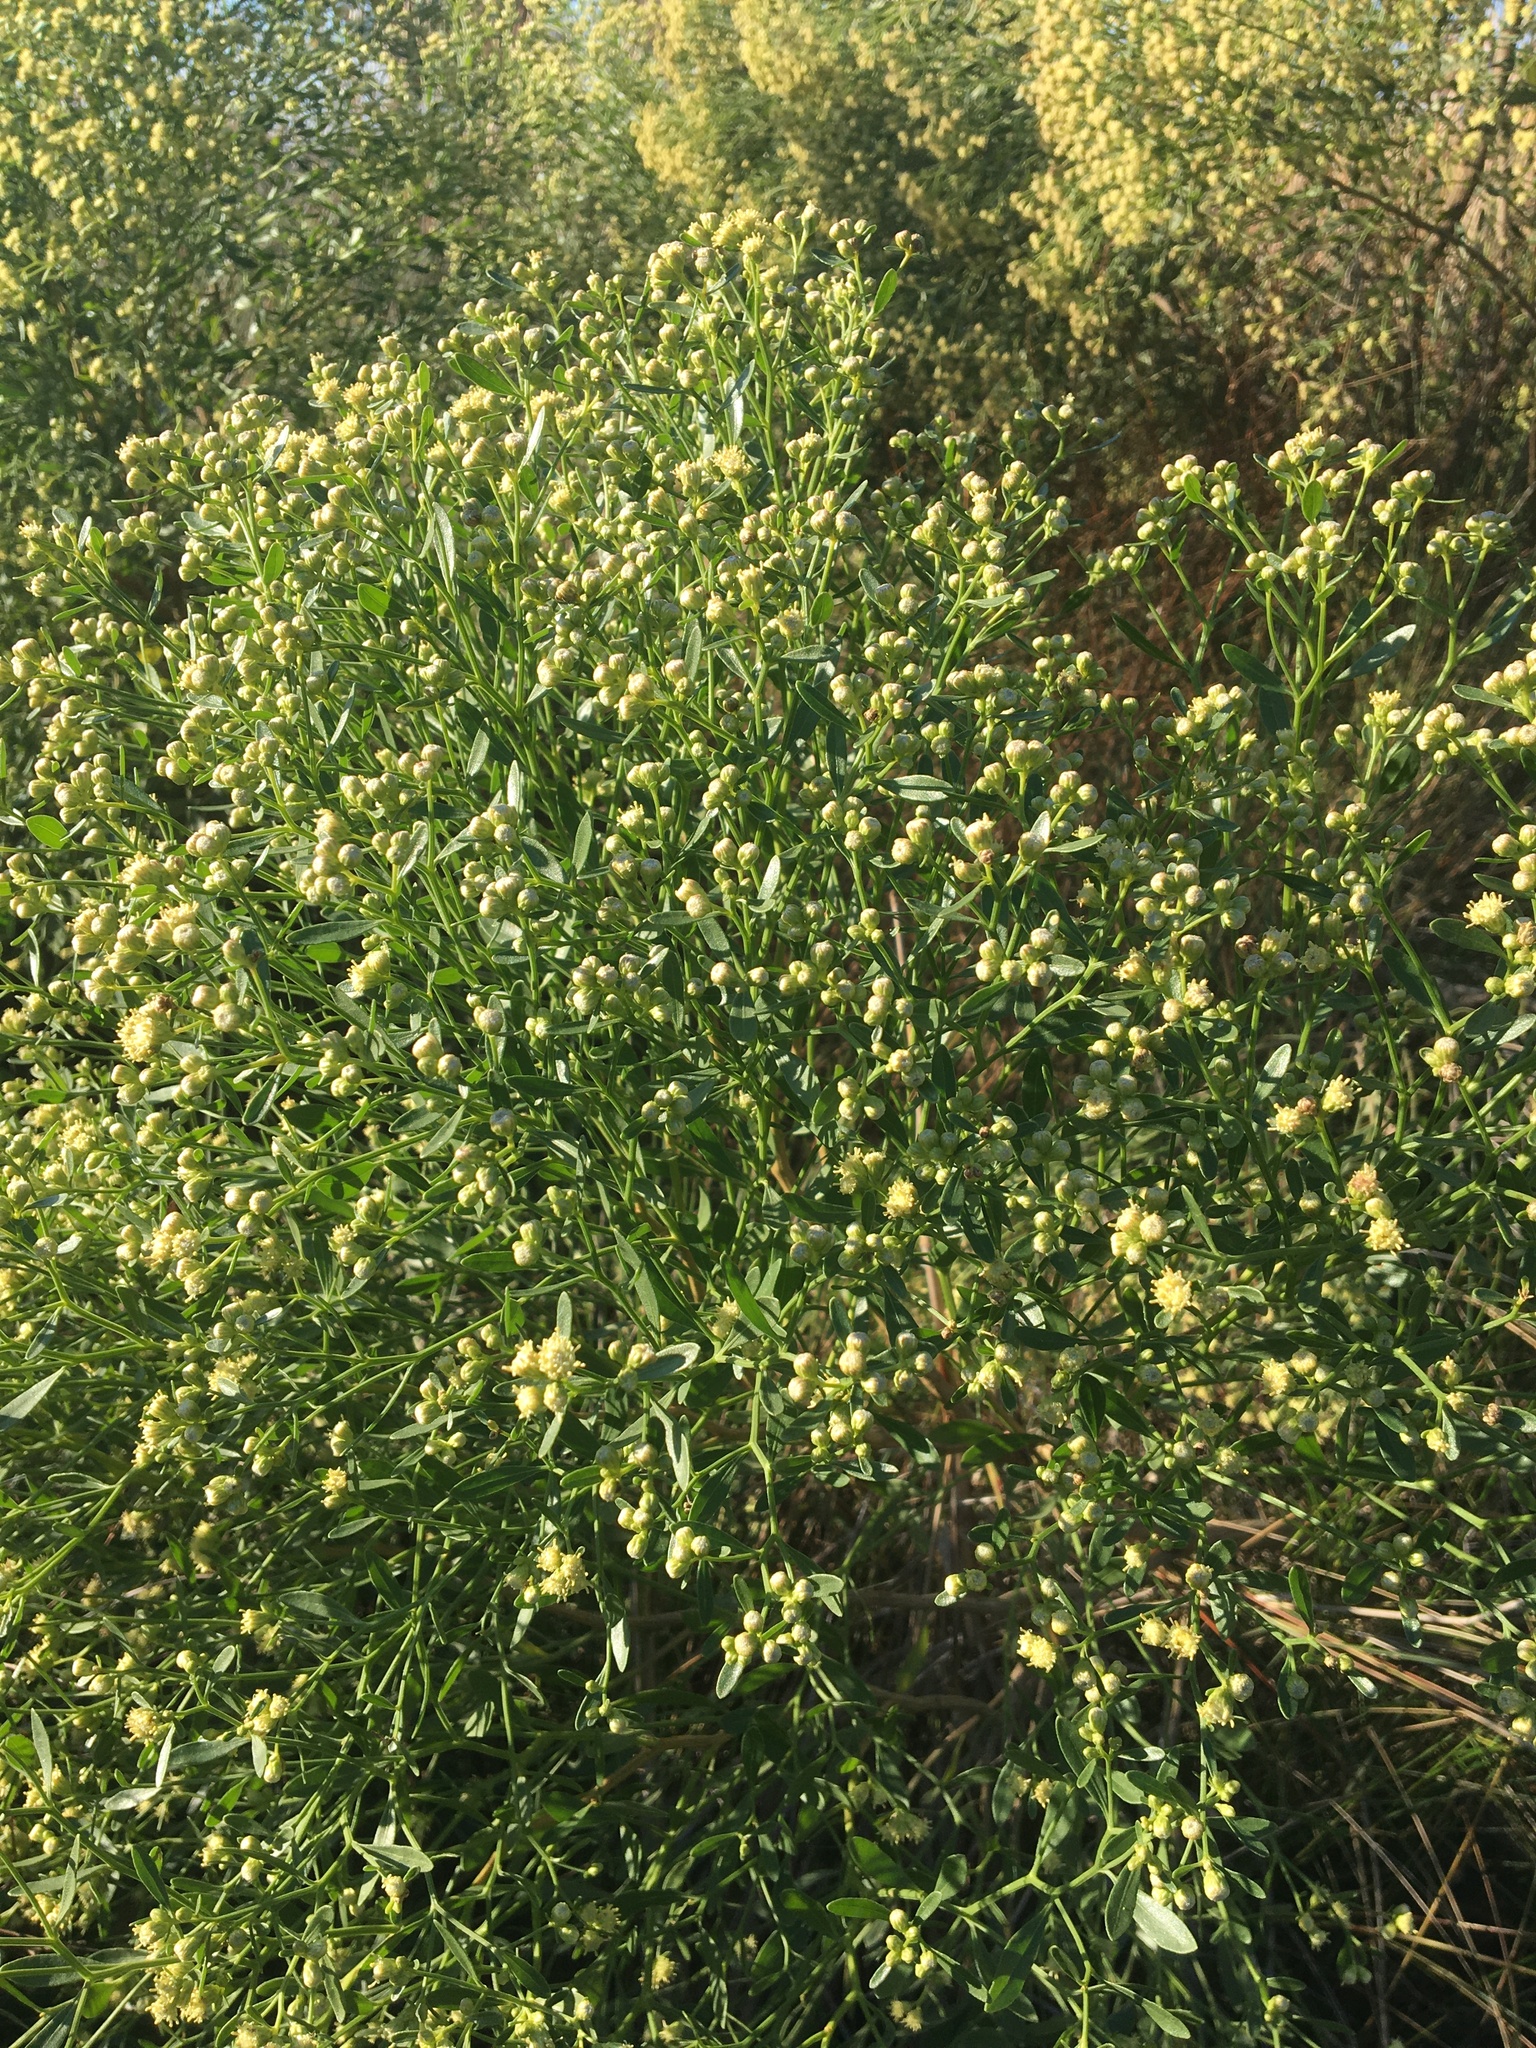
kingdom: Plantae
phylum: Tracheophyta
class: Magnoliopsida
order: Asterales
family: Asteraceae
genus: Baccharis
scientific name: Baccharis halimifolia
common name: Eastern baccharis
